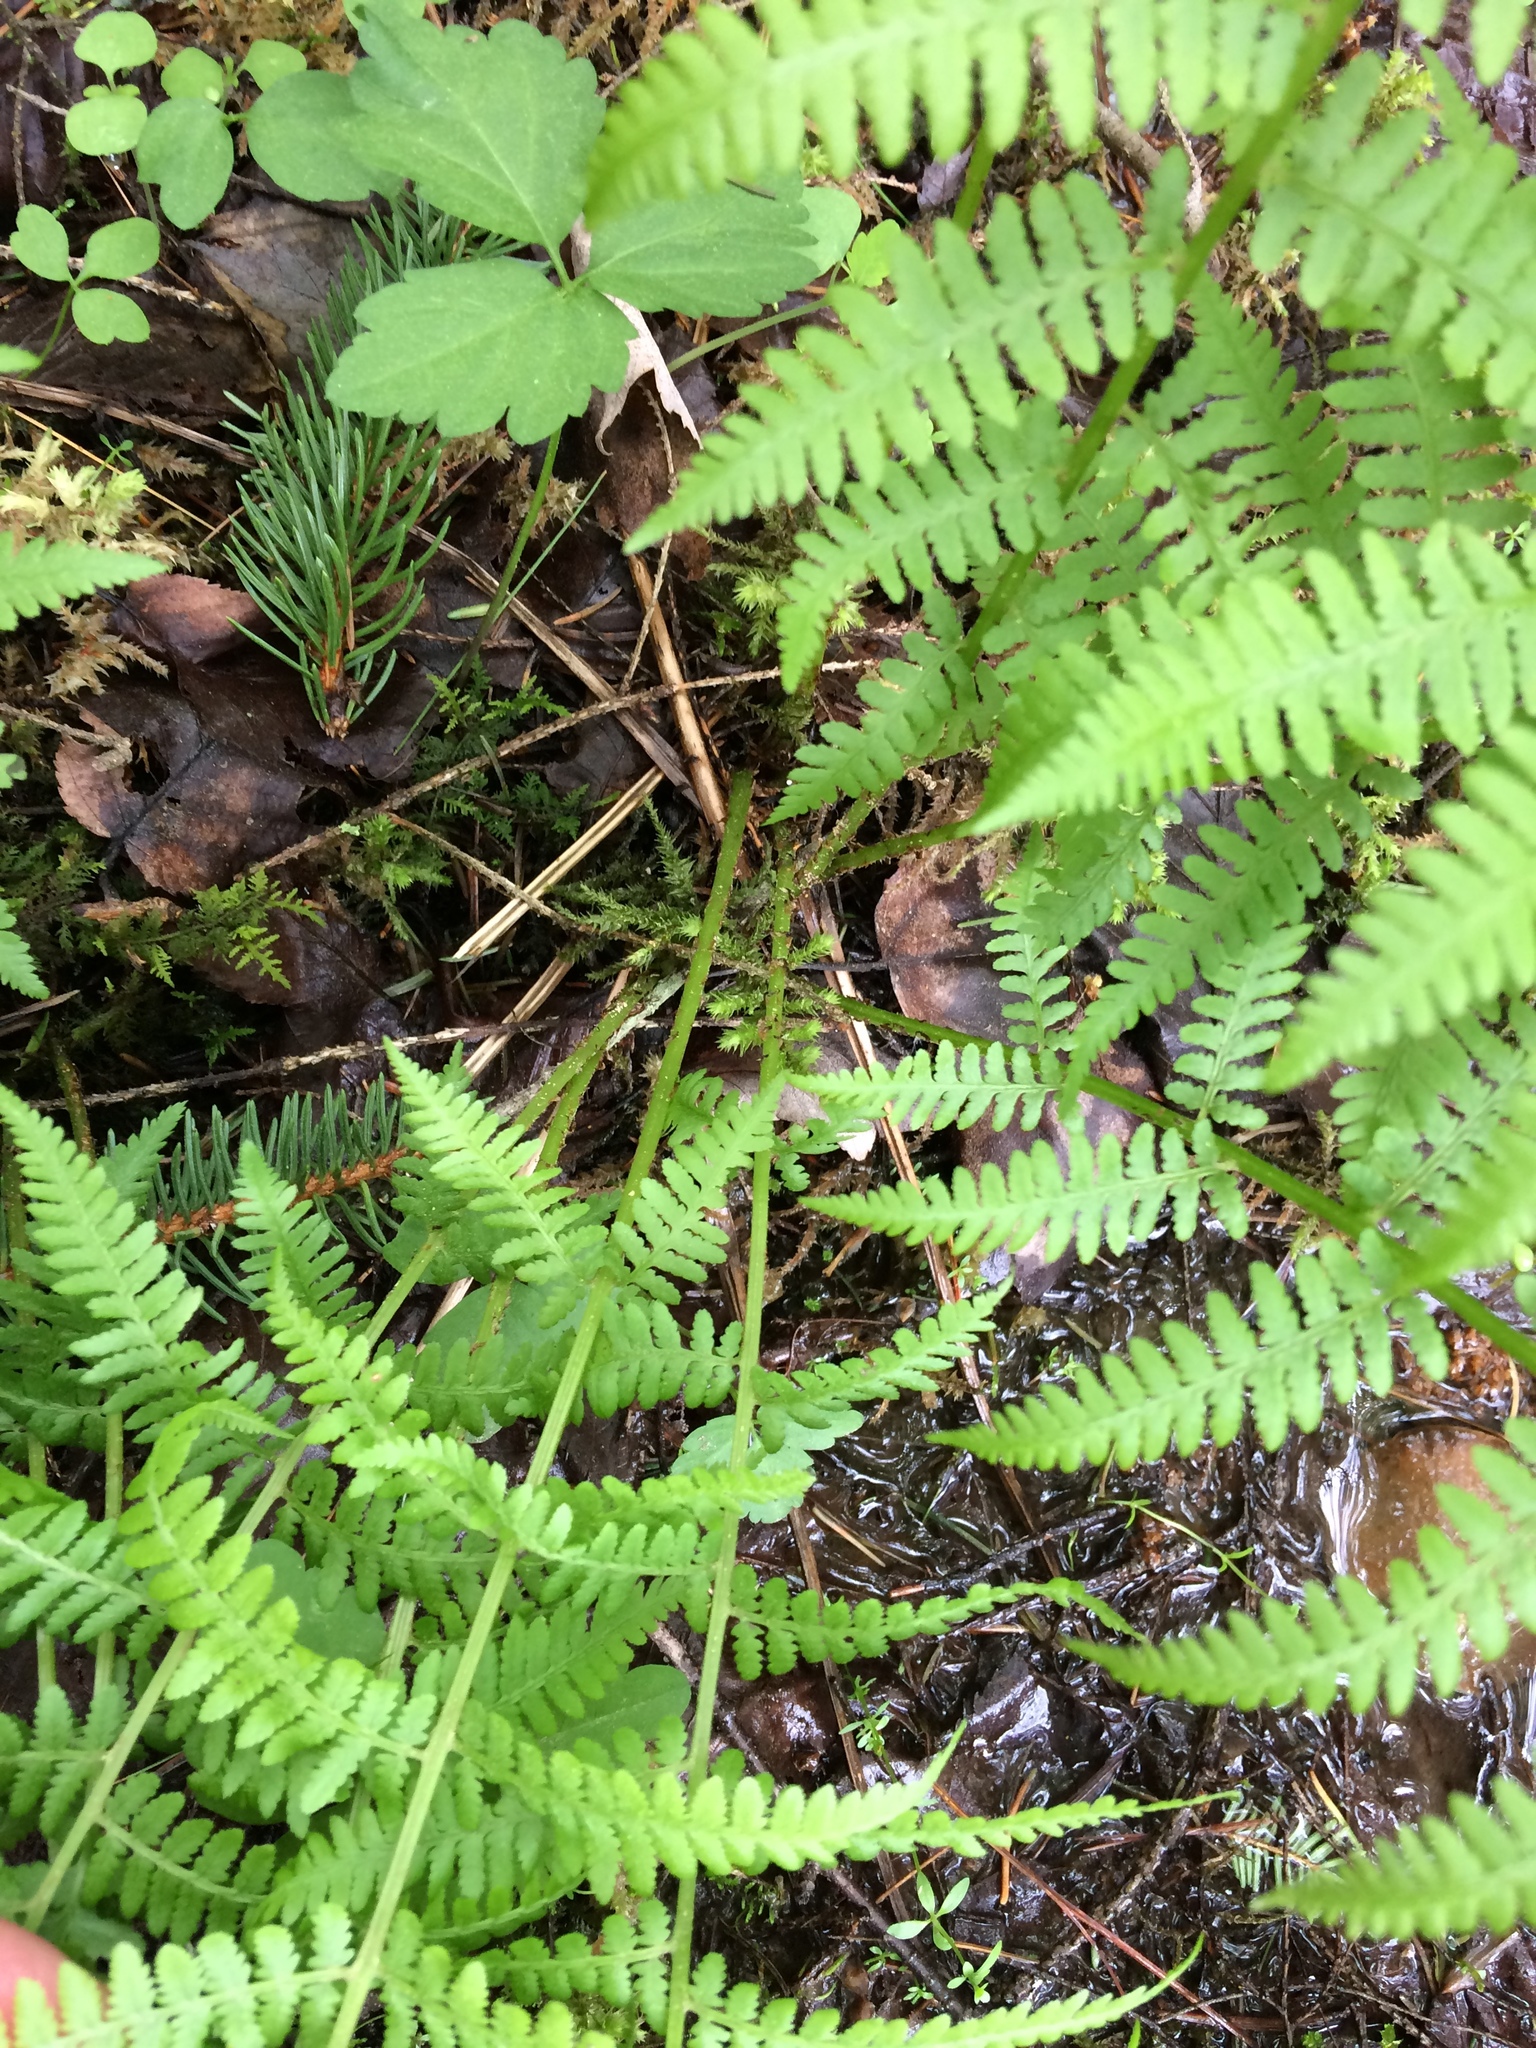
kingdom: Plantae
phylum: Tracheophyta
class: Polypodiopsida
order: Polypodiales
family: Athyriaceae
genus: Athyrium
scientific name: Athyrium angustum
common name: Northern lady fern
